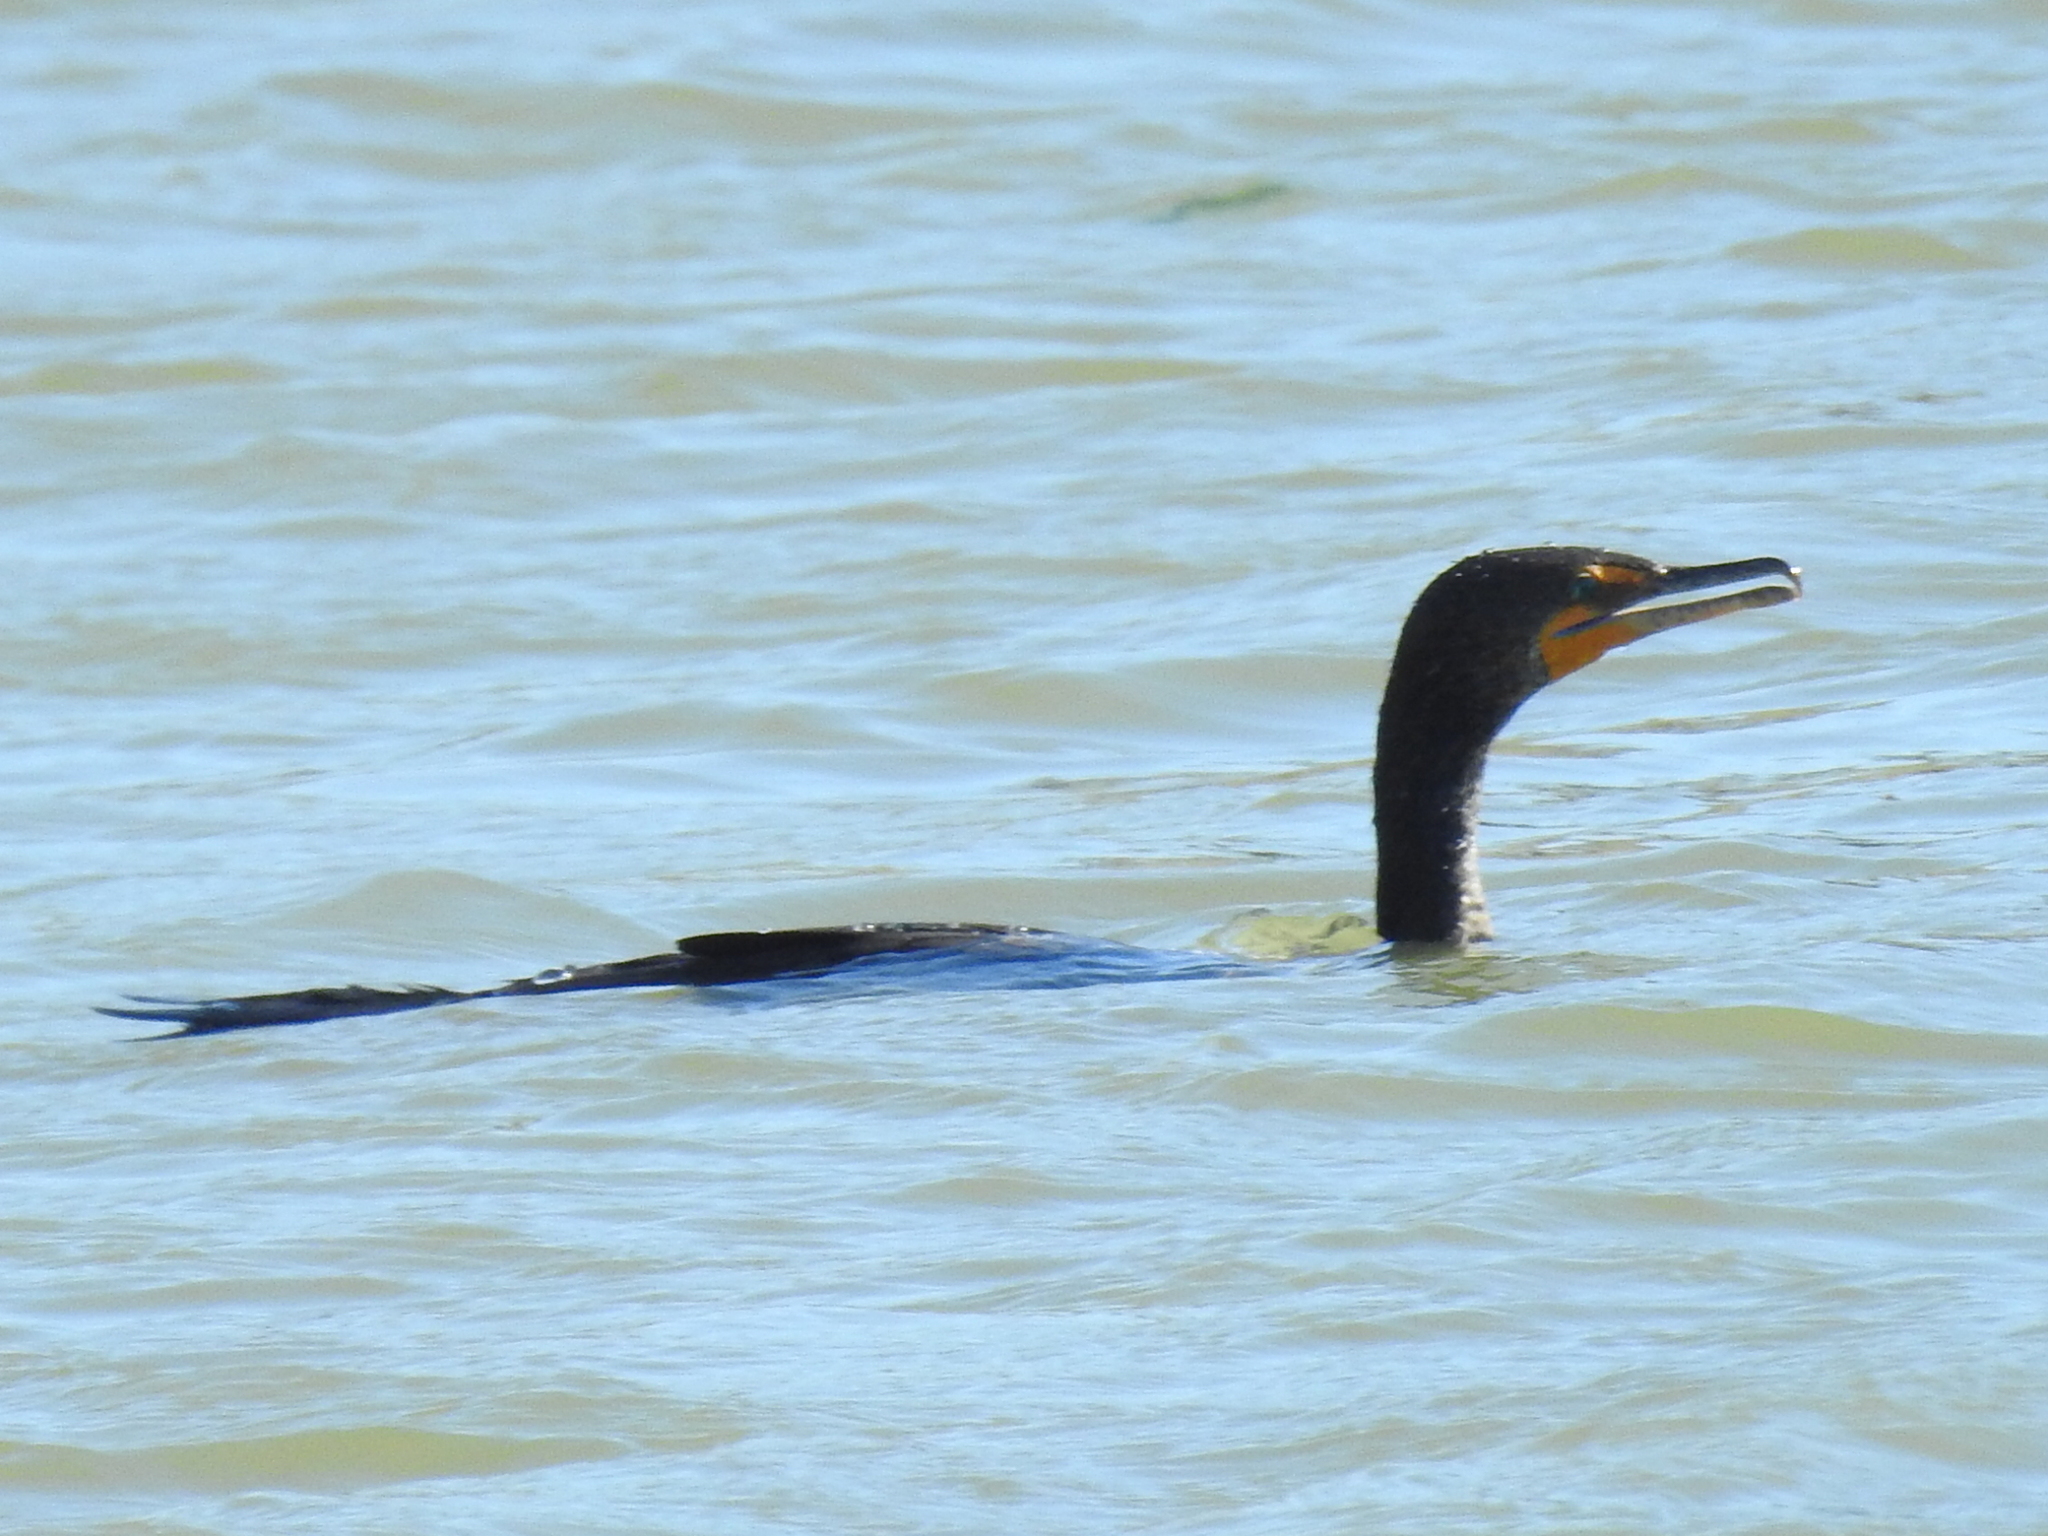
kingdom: Animalia
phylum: Chordata
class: Aves
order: Suliformes
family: Phalacrocoracidae
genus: Phalacrocorax
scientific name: Phalacrocorax auritus
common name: Double-crested cormorant
